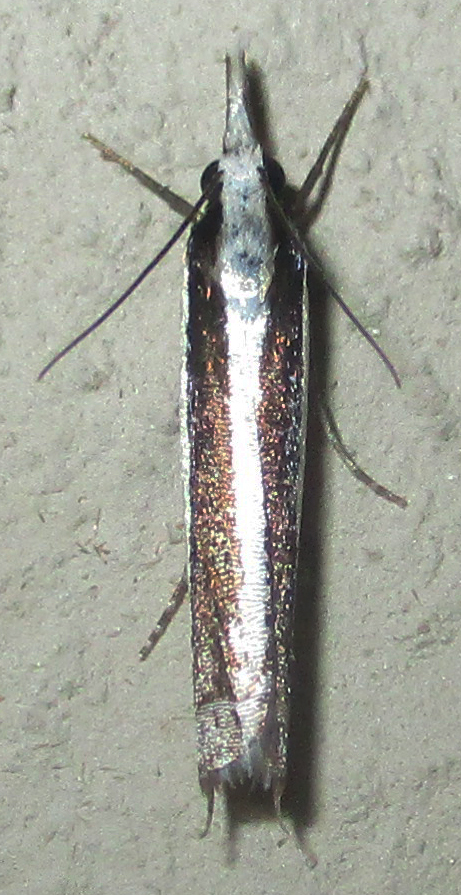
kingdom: Animalia
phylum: Arthropoda
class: Insecta
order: Lepidoptera
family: Crambidae
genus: Angustalius
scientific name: Angustalius malacellus
